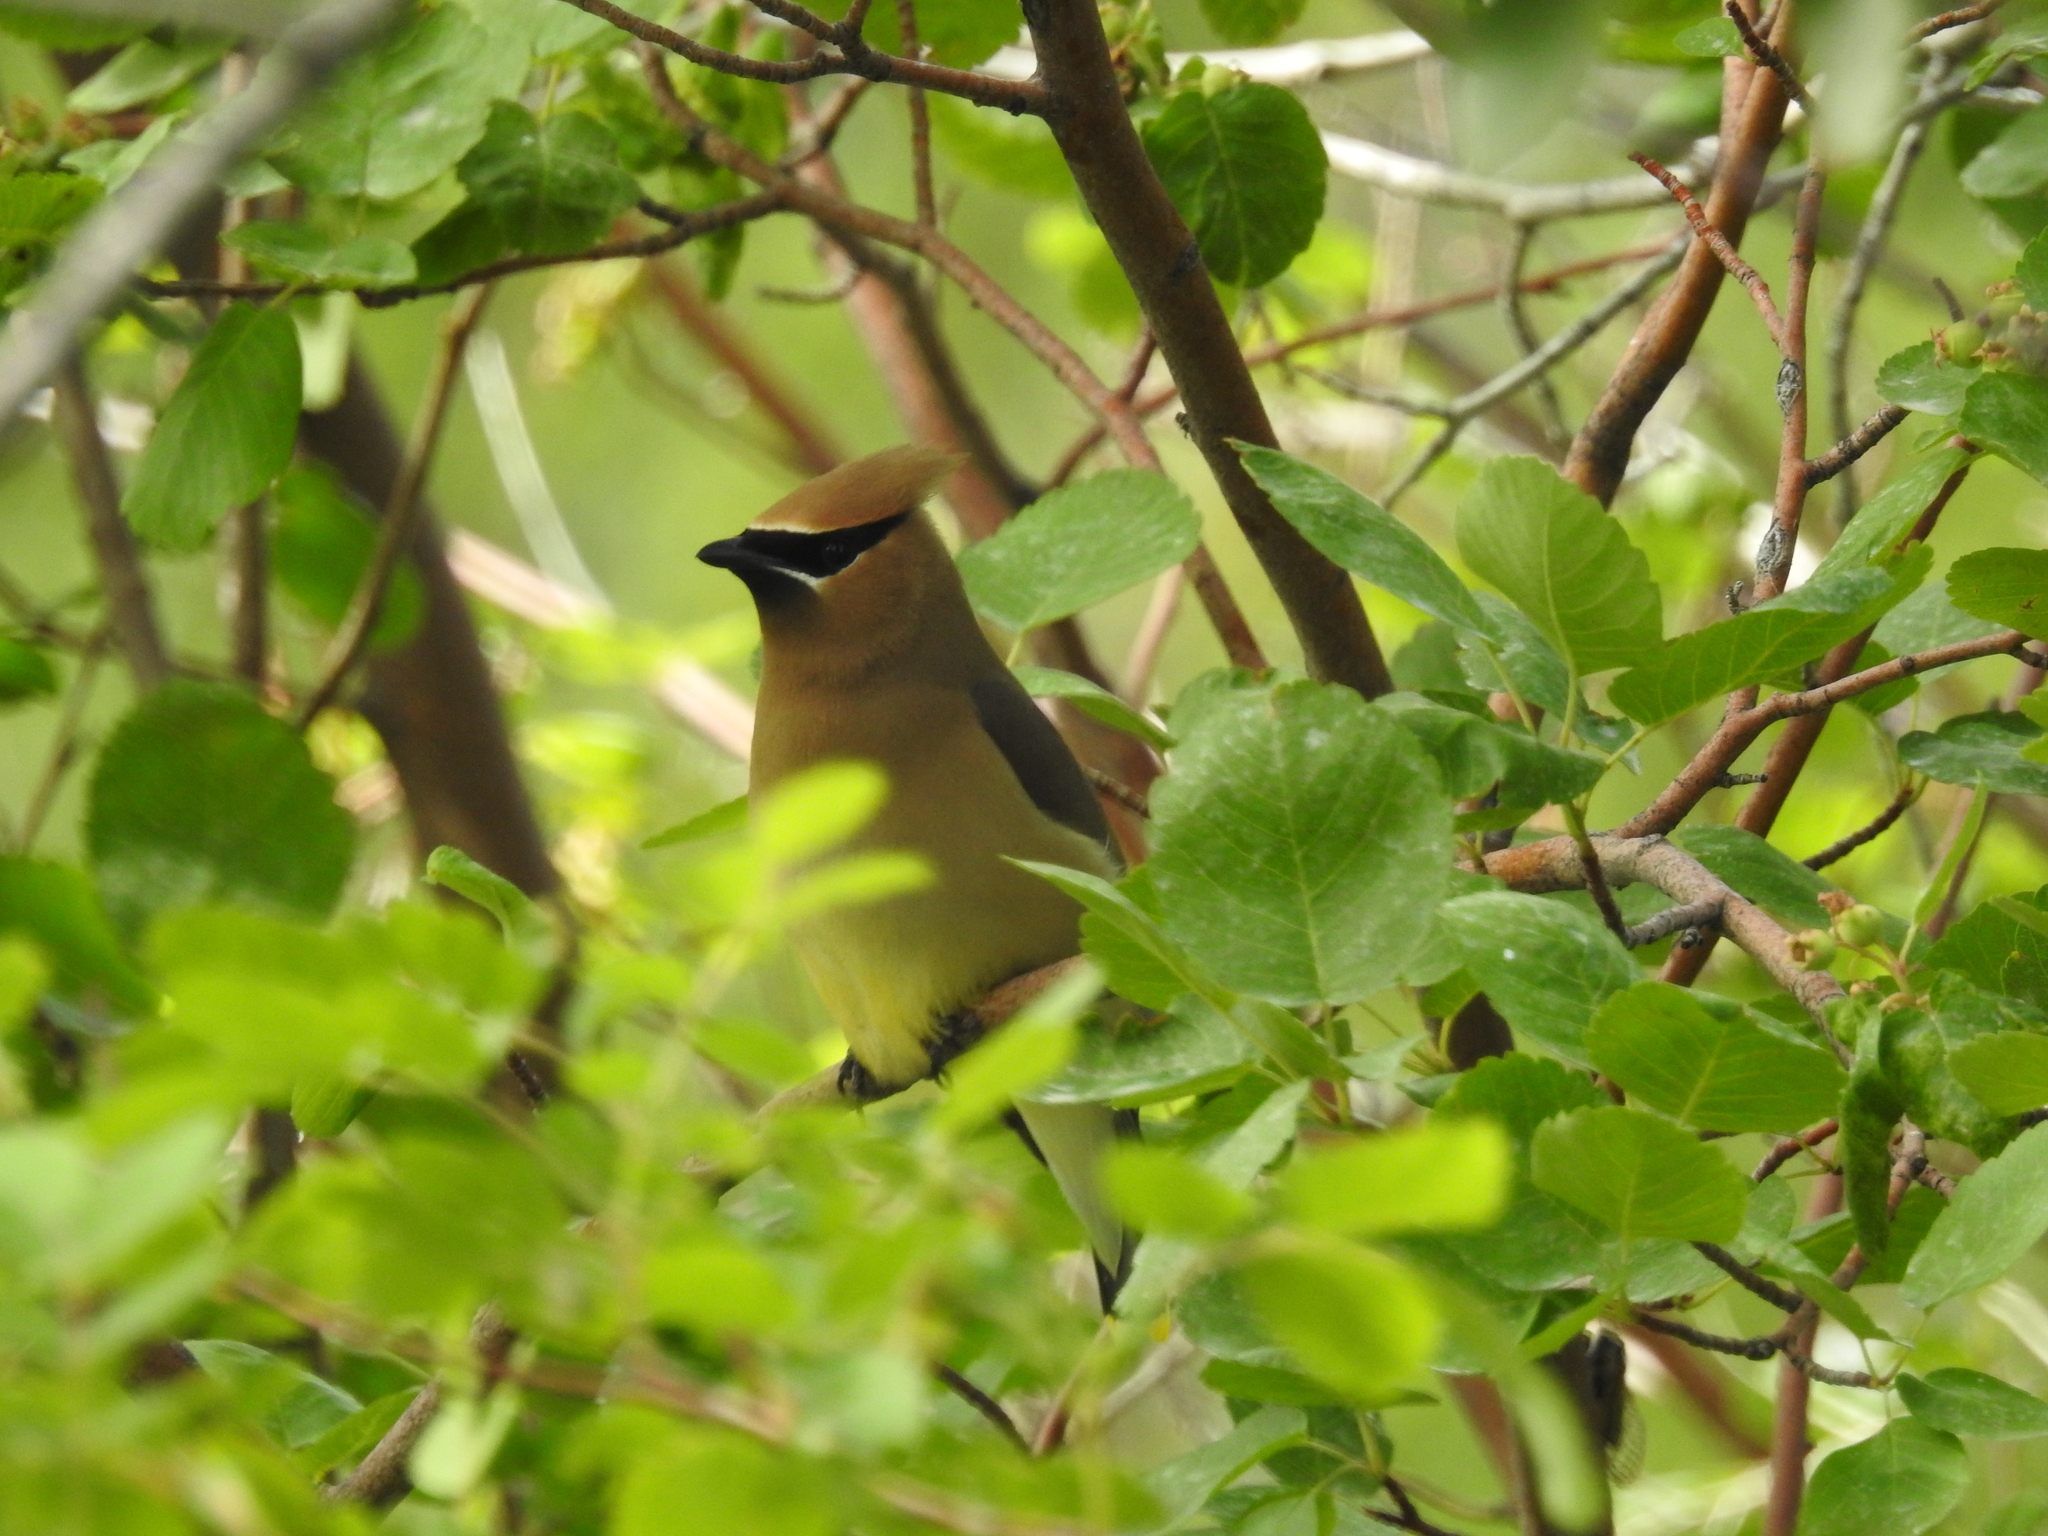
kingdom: Animalia
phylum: Chordata
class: Aves
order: Passeriformes
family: Bombycillidae
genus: Bombycilla
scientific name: Bombycilla cedrorum
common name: Cedar waxwing
